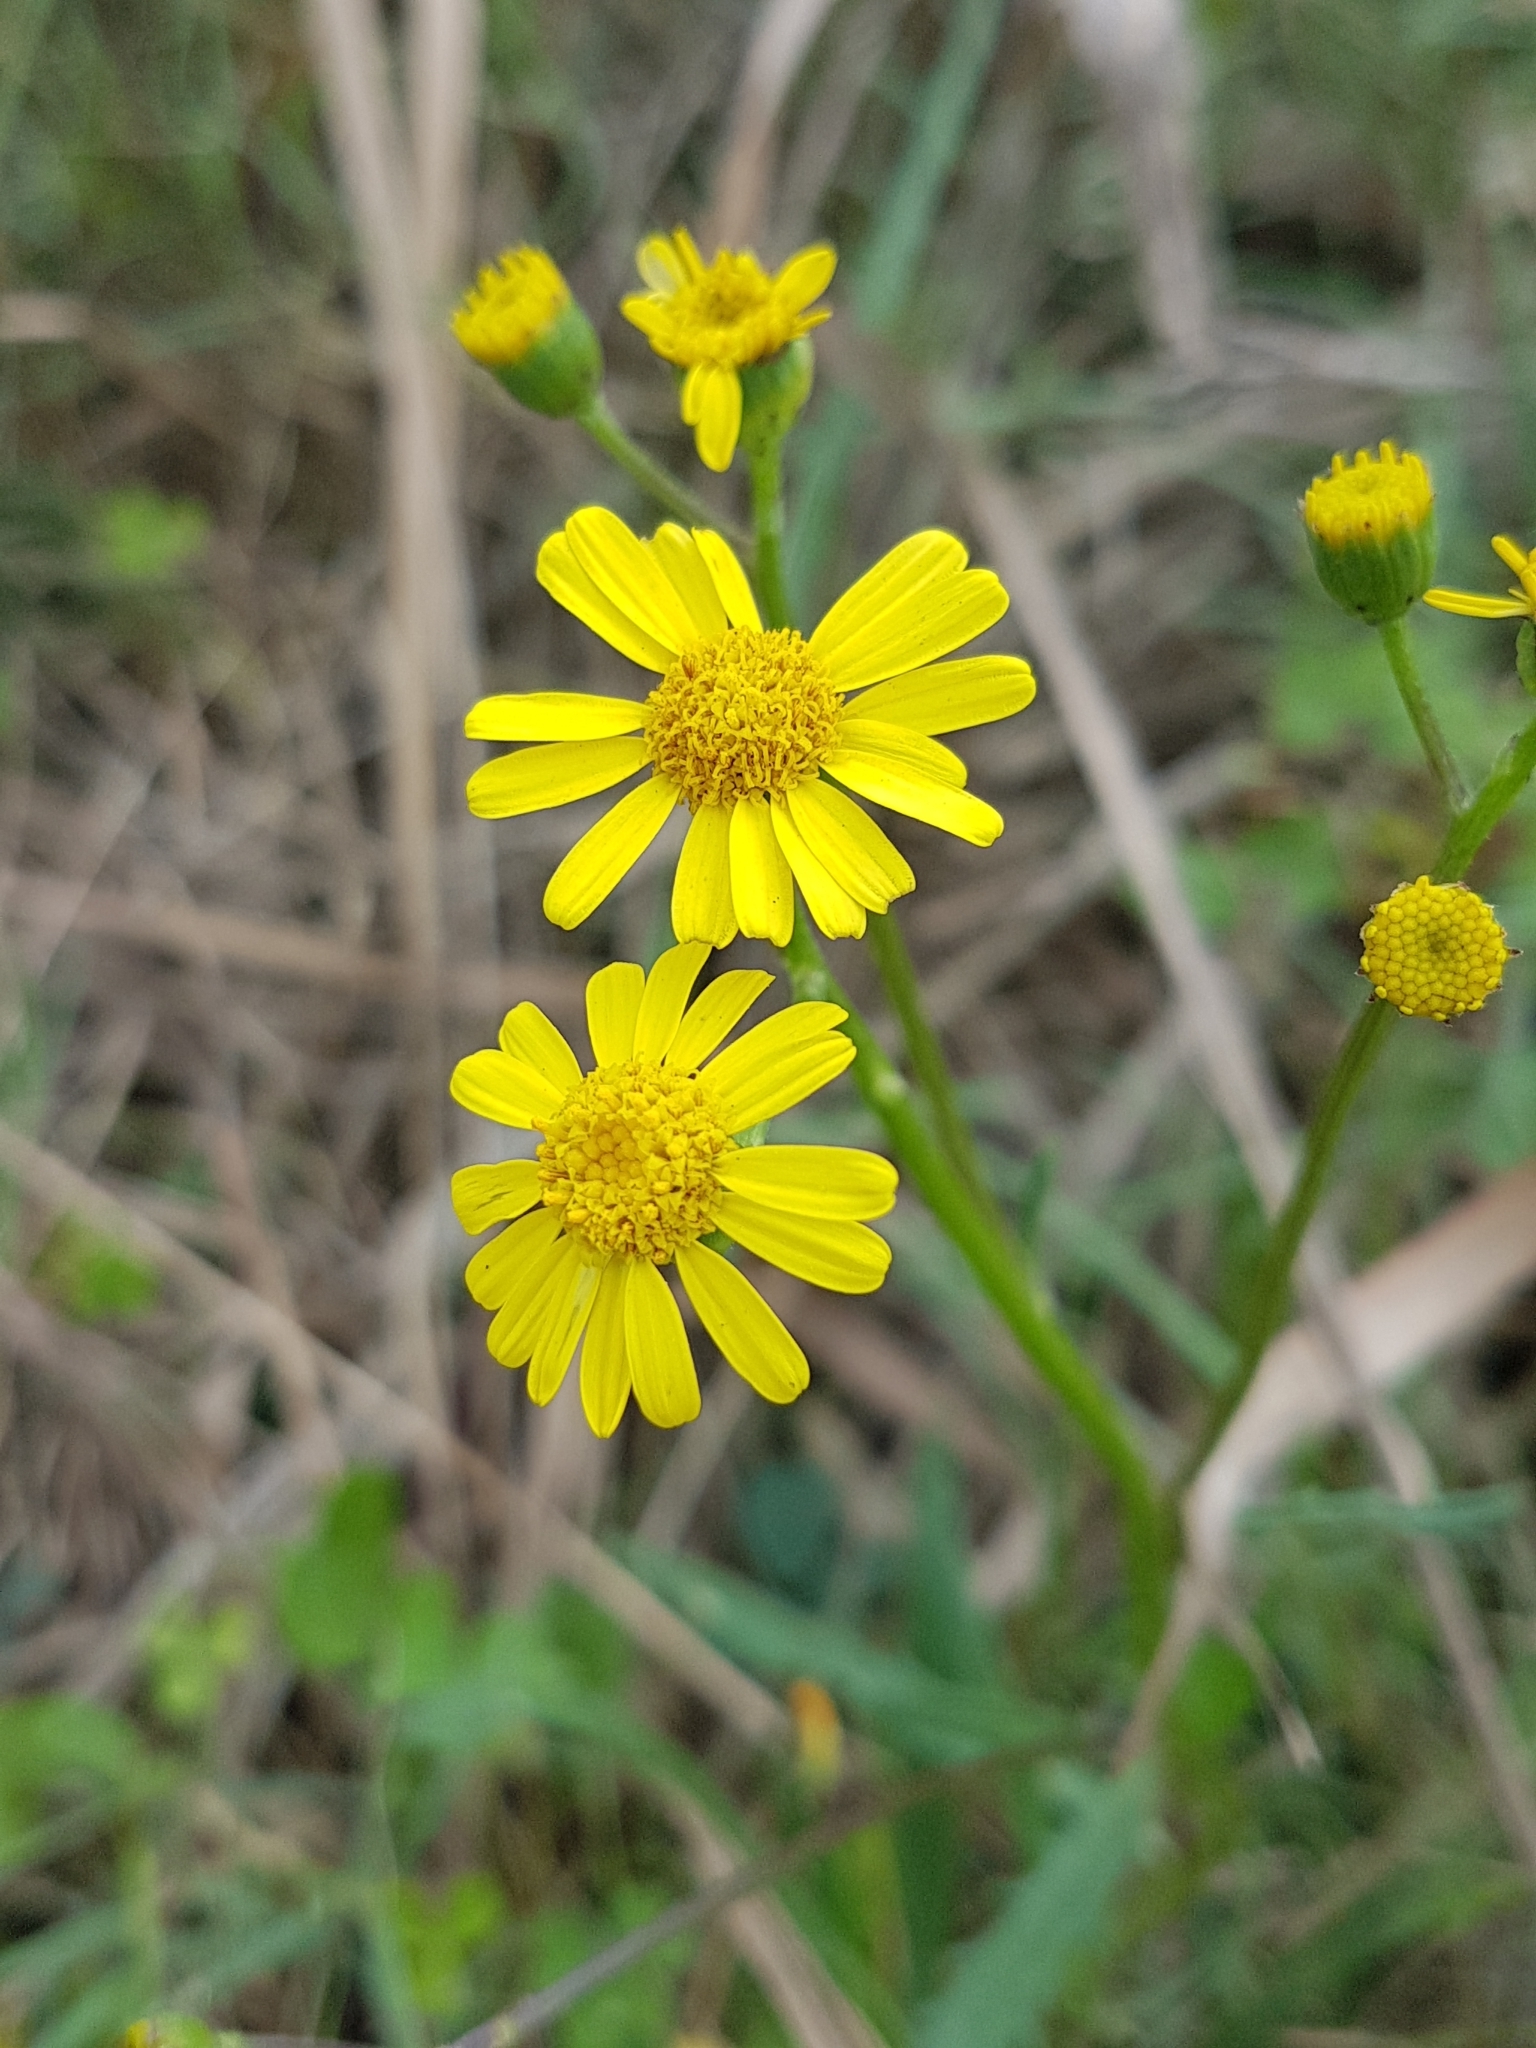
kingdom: Plantae
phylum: Tracheophyta
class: Magnoliopsida
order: Asterales
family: Asteraceae
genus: Senecio
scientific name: Senecio pinnatifolius
